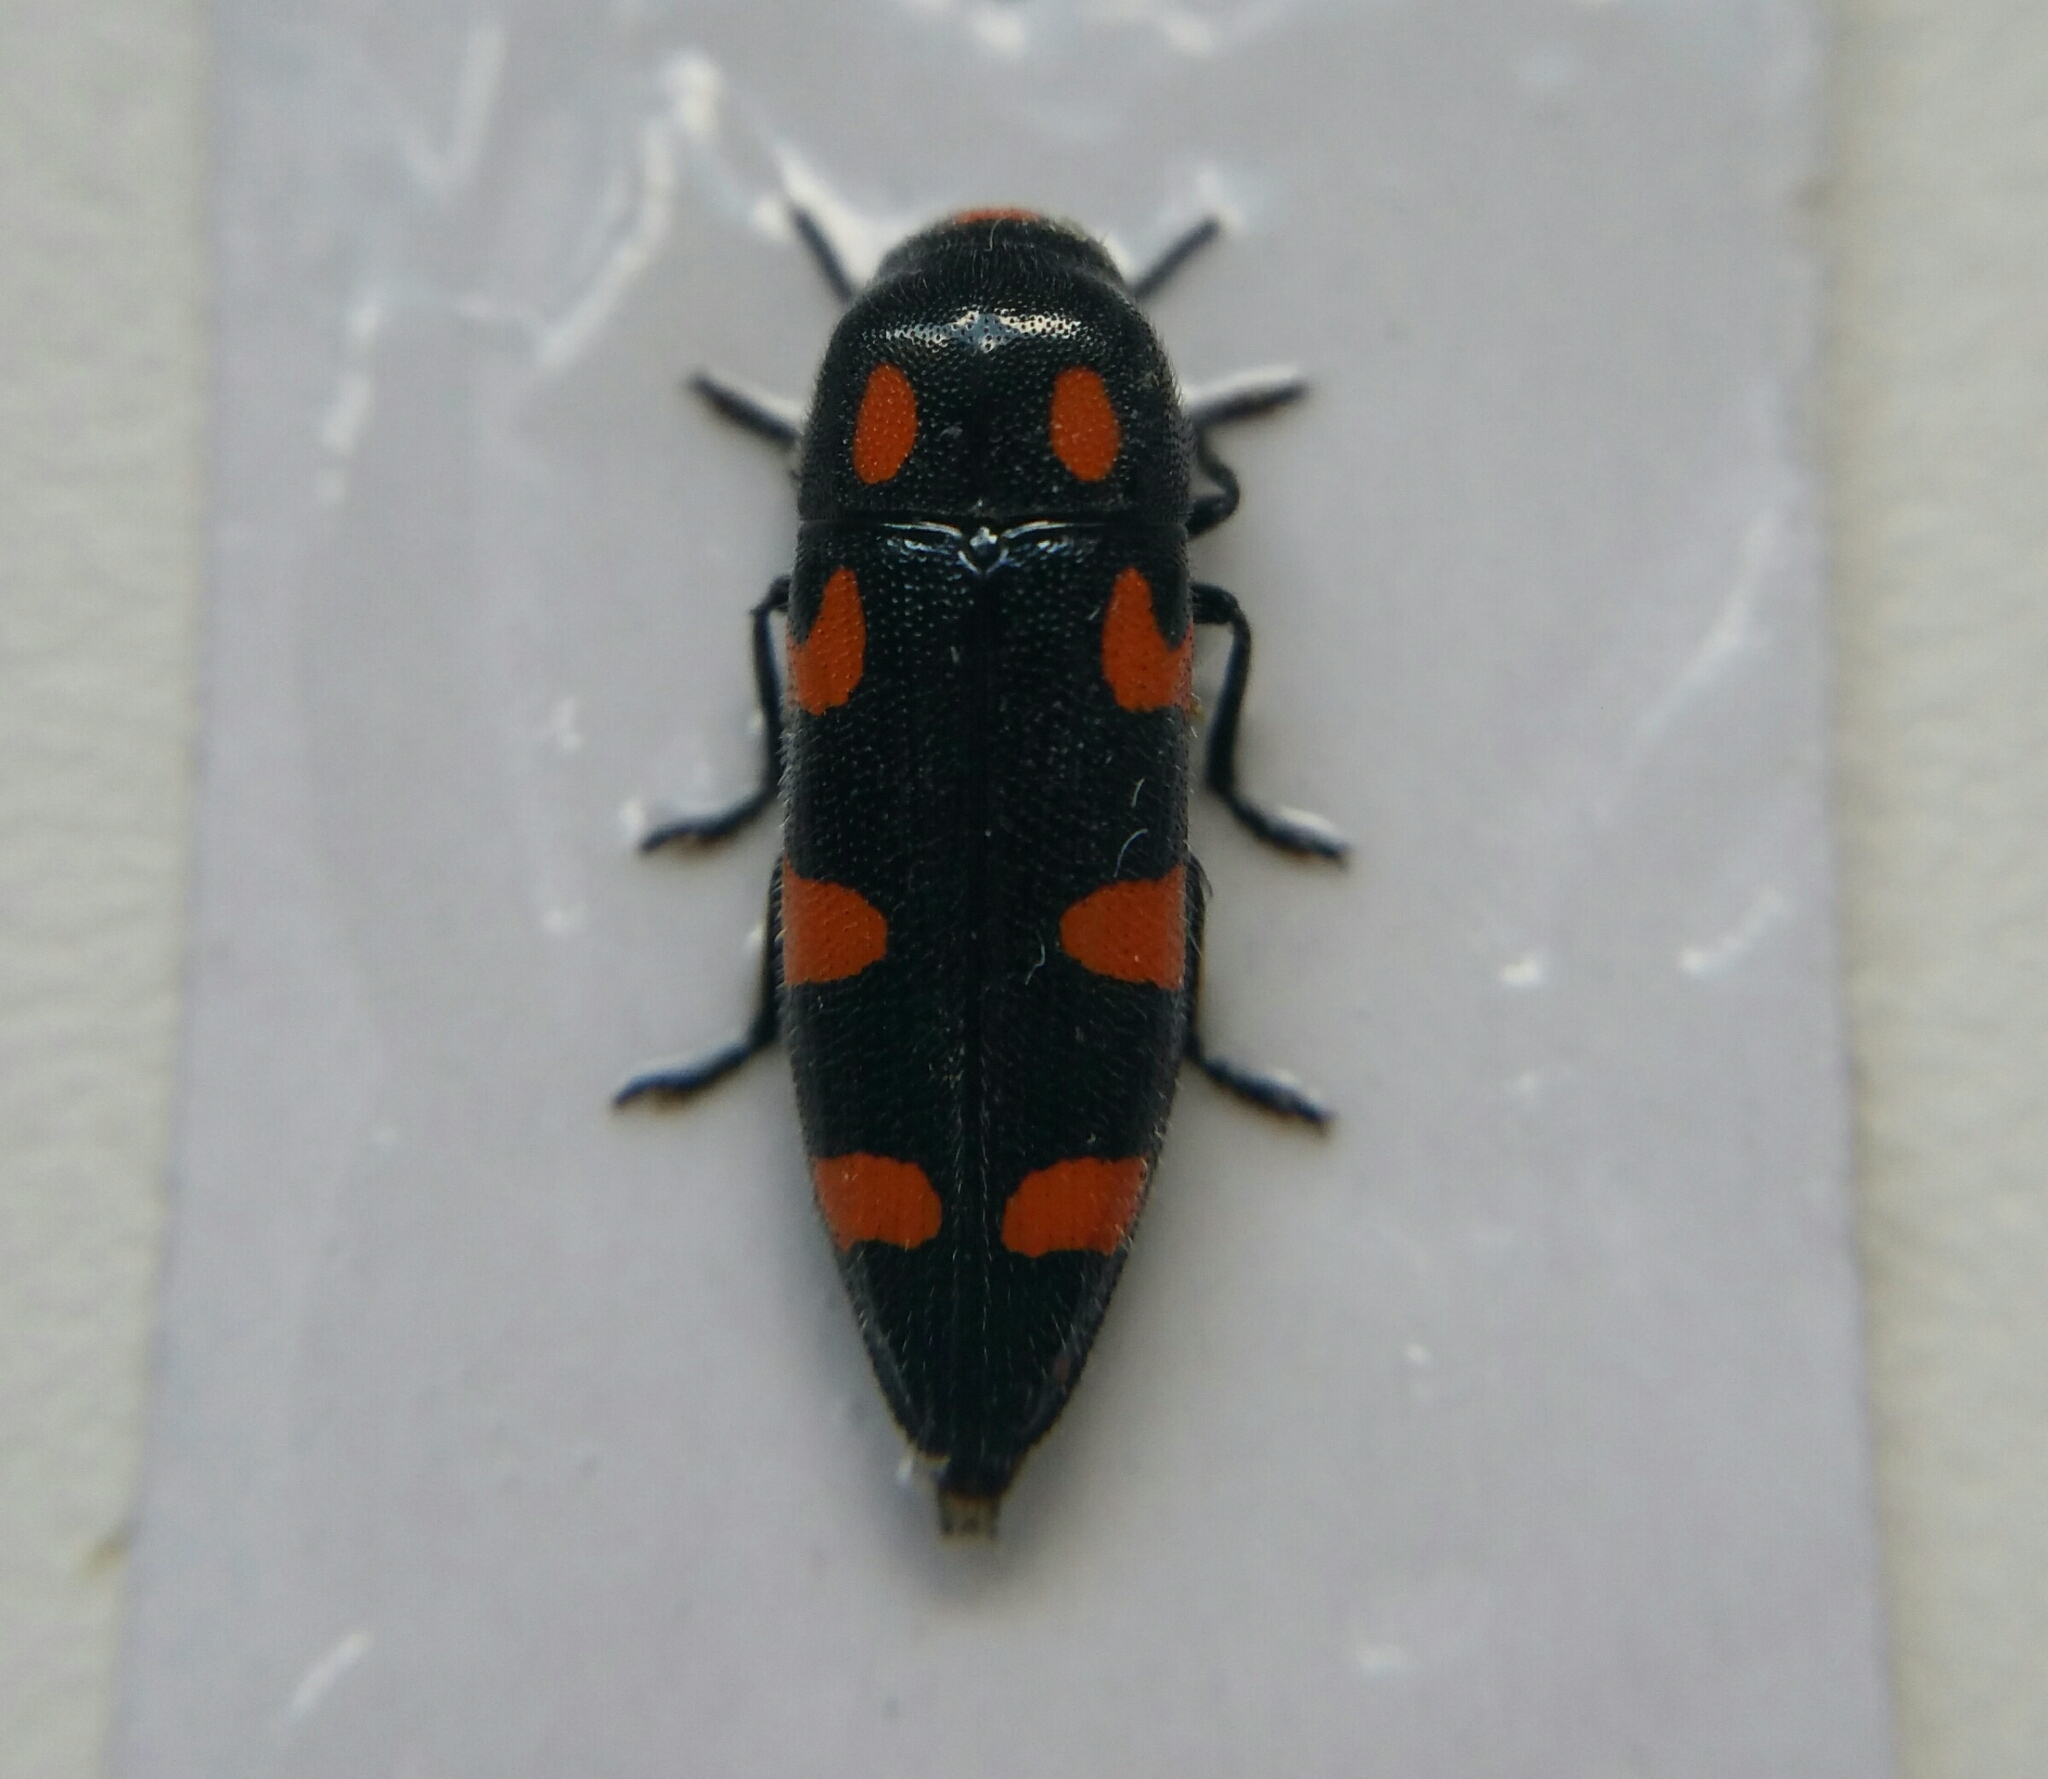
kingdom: Animalia
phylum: Arthropoda
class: Insecta
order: Coleoptera
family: Buprestidae
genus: Ptosima
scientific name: Ptosima undecimmaculata
